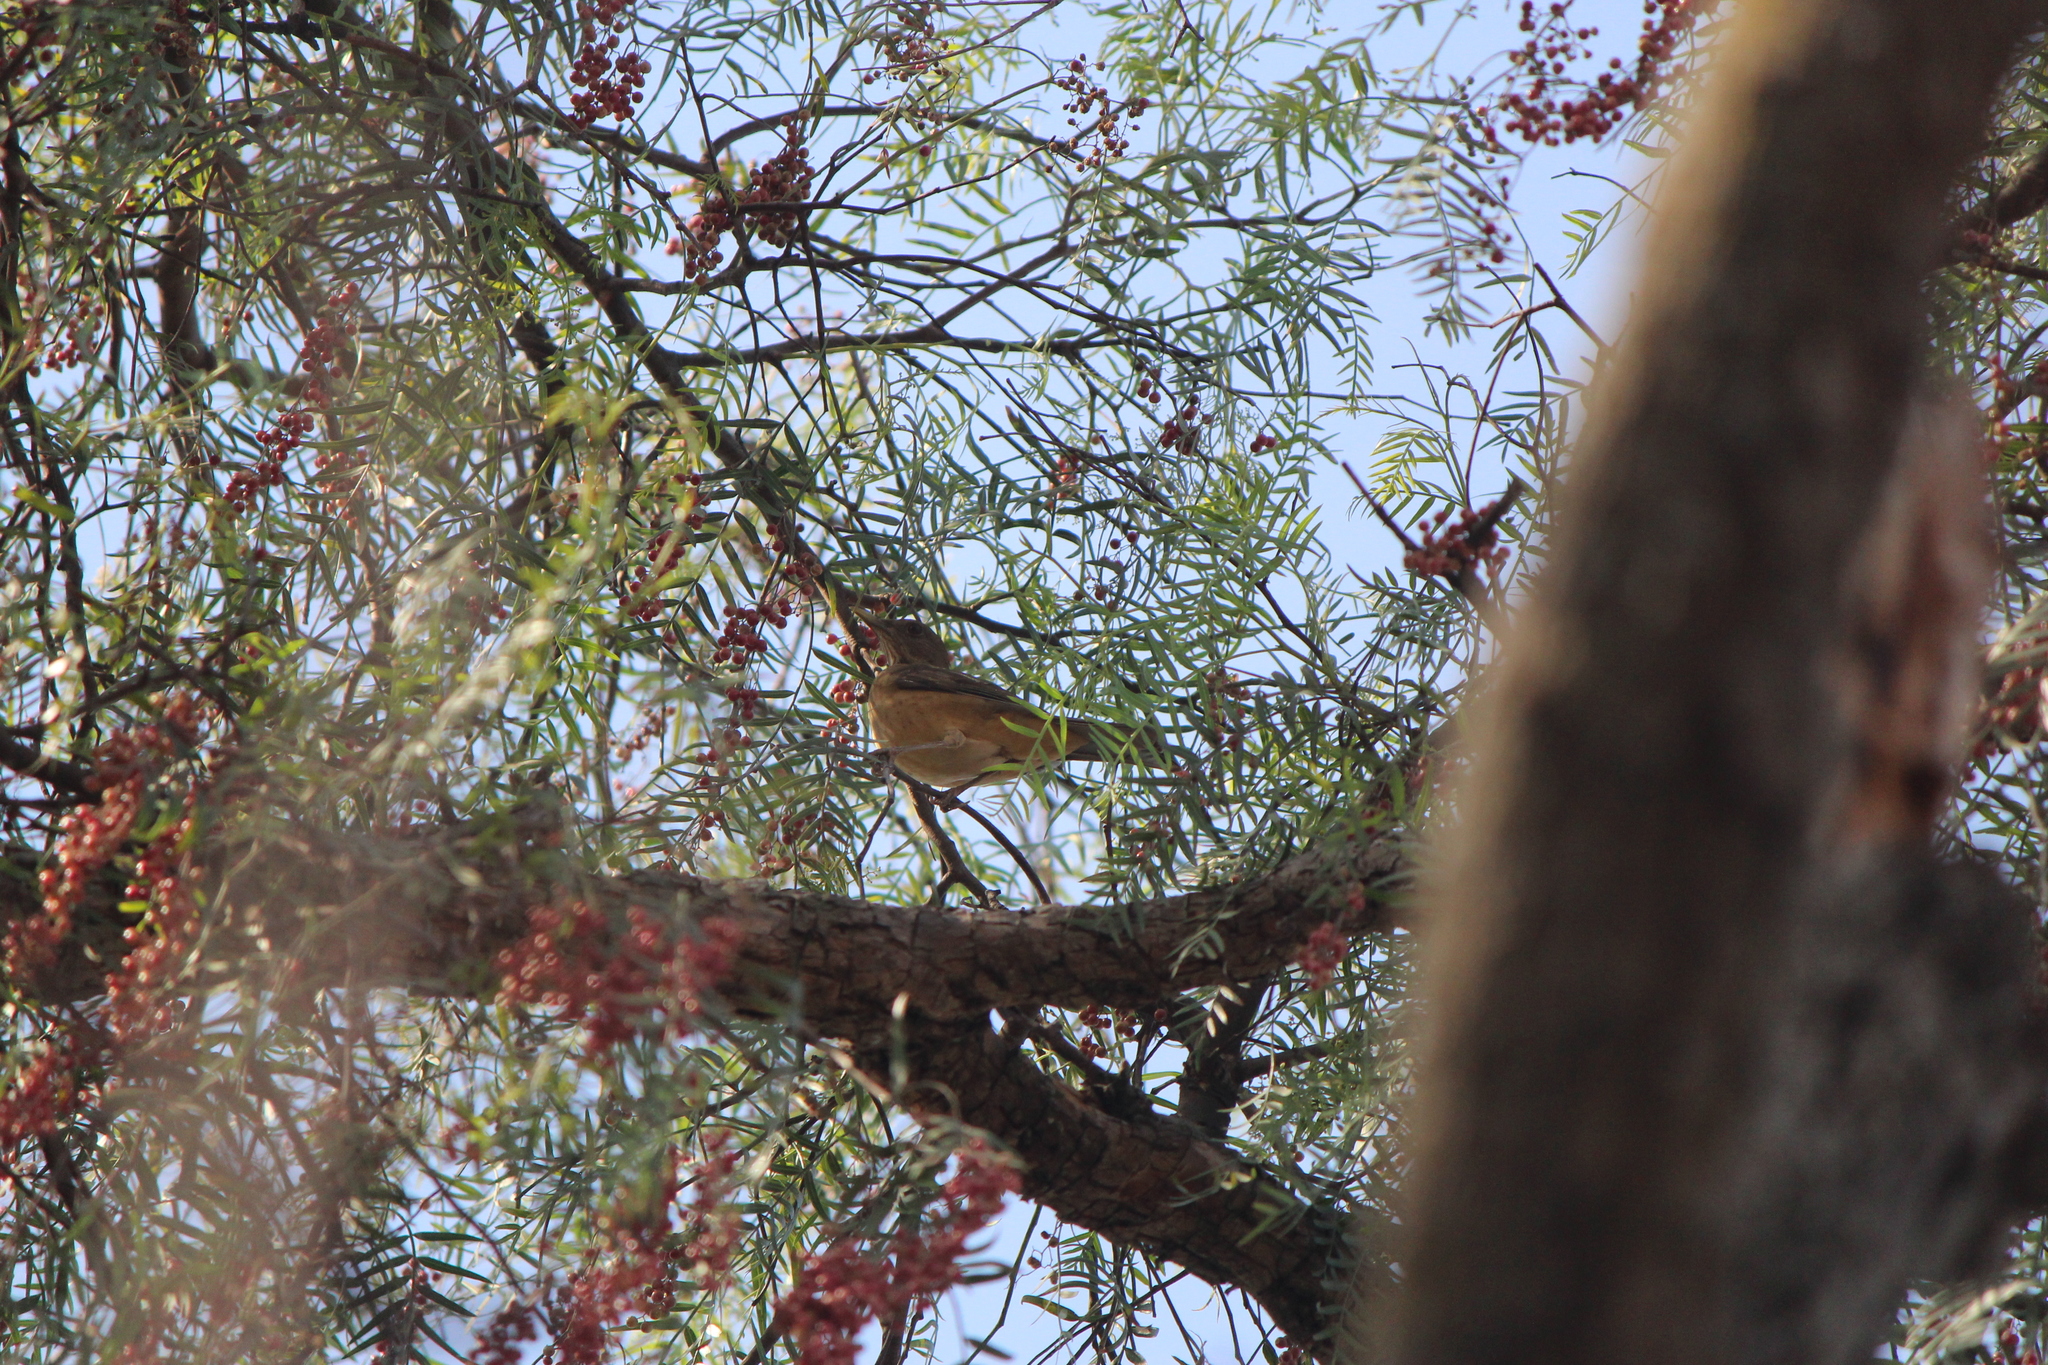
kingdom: Animalia
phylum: Chordata
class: Aves
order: Passeriformes
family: Turdidae
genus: Turdus
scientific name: Turdus grayi
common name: Clay-colored thrush
